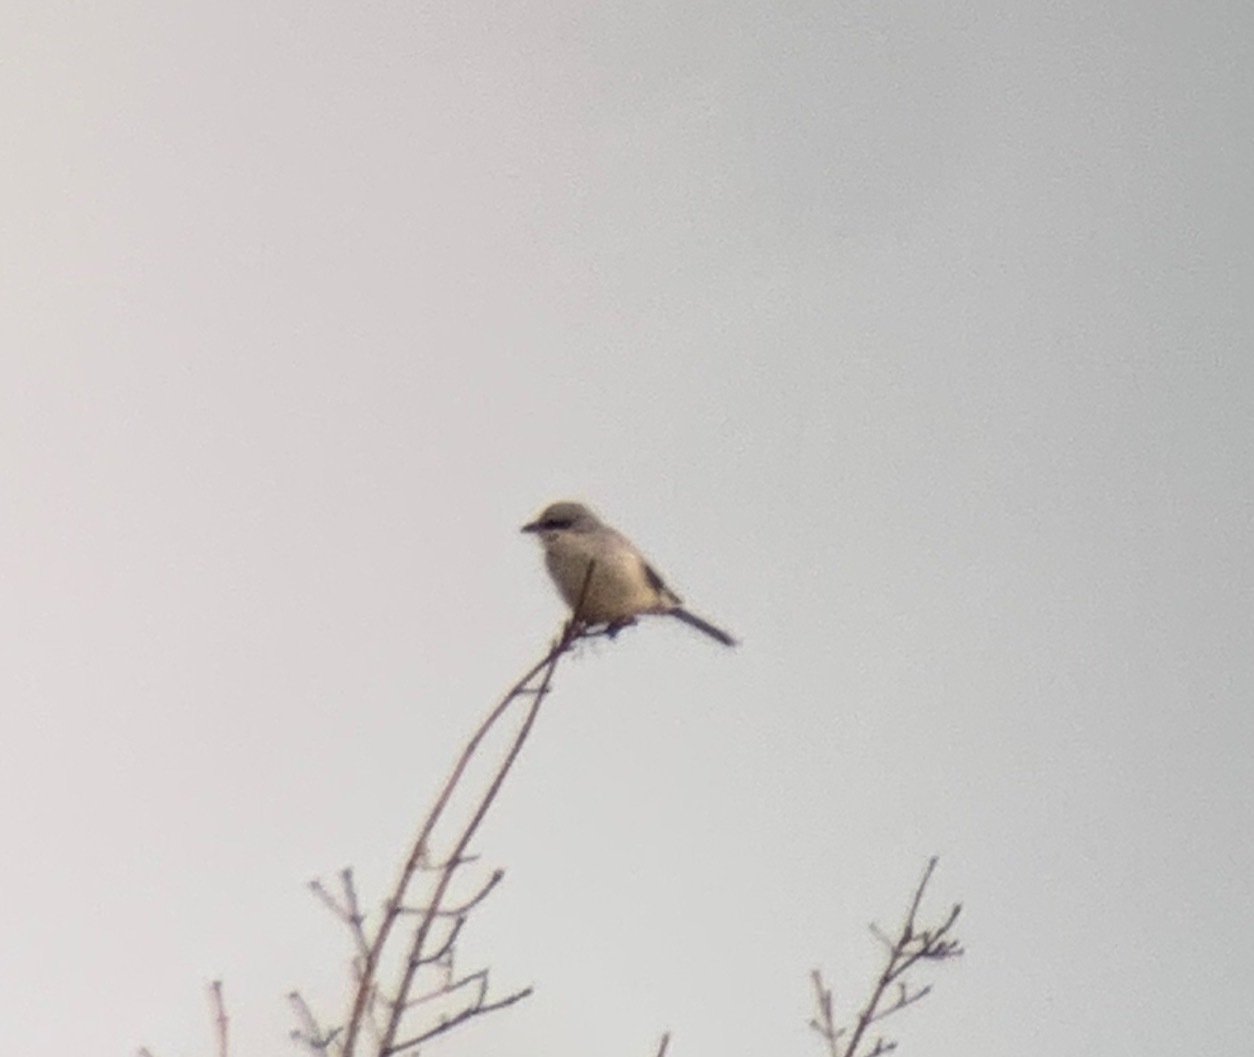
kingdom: Animalia
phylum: Chordata
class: Aves
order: Passeriformes
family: Laniidae
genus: Lanius
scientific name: Lanius excubitor
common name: Great grey shrike
